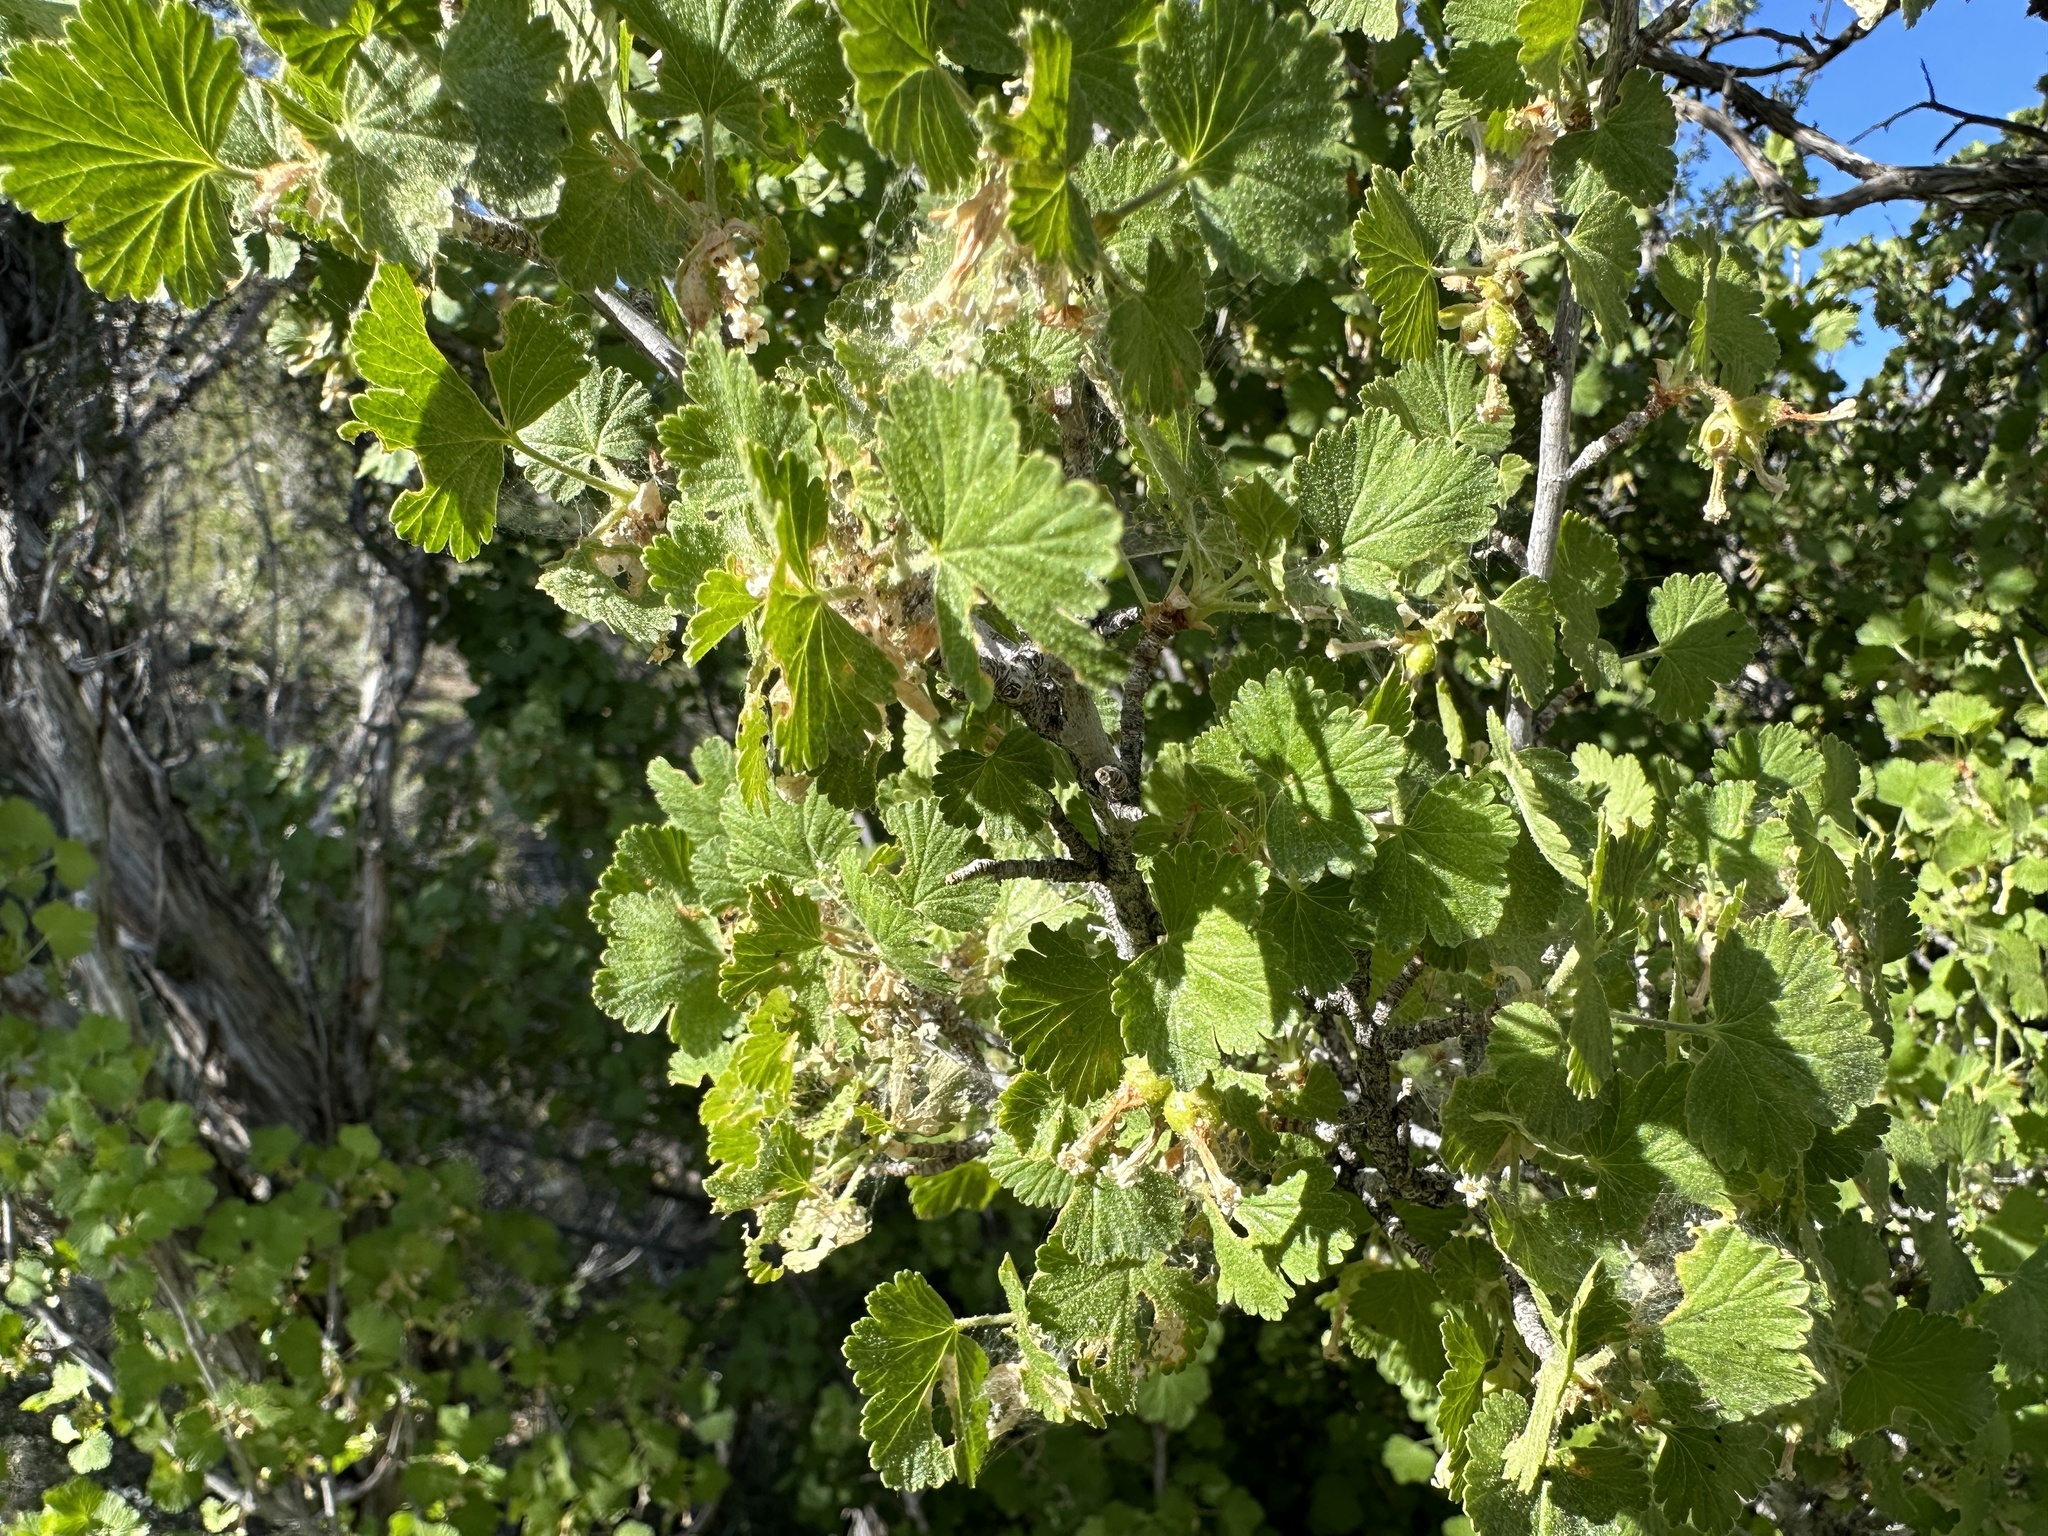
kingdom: Plantae
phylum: Tracheophyta
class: Magnoliopsida
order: Saxifragales
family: Grossulariaceae
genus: Ribes
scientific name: Ribes cereum
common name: Wax currant
